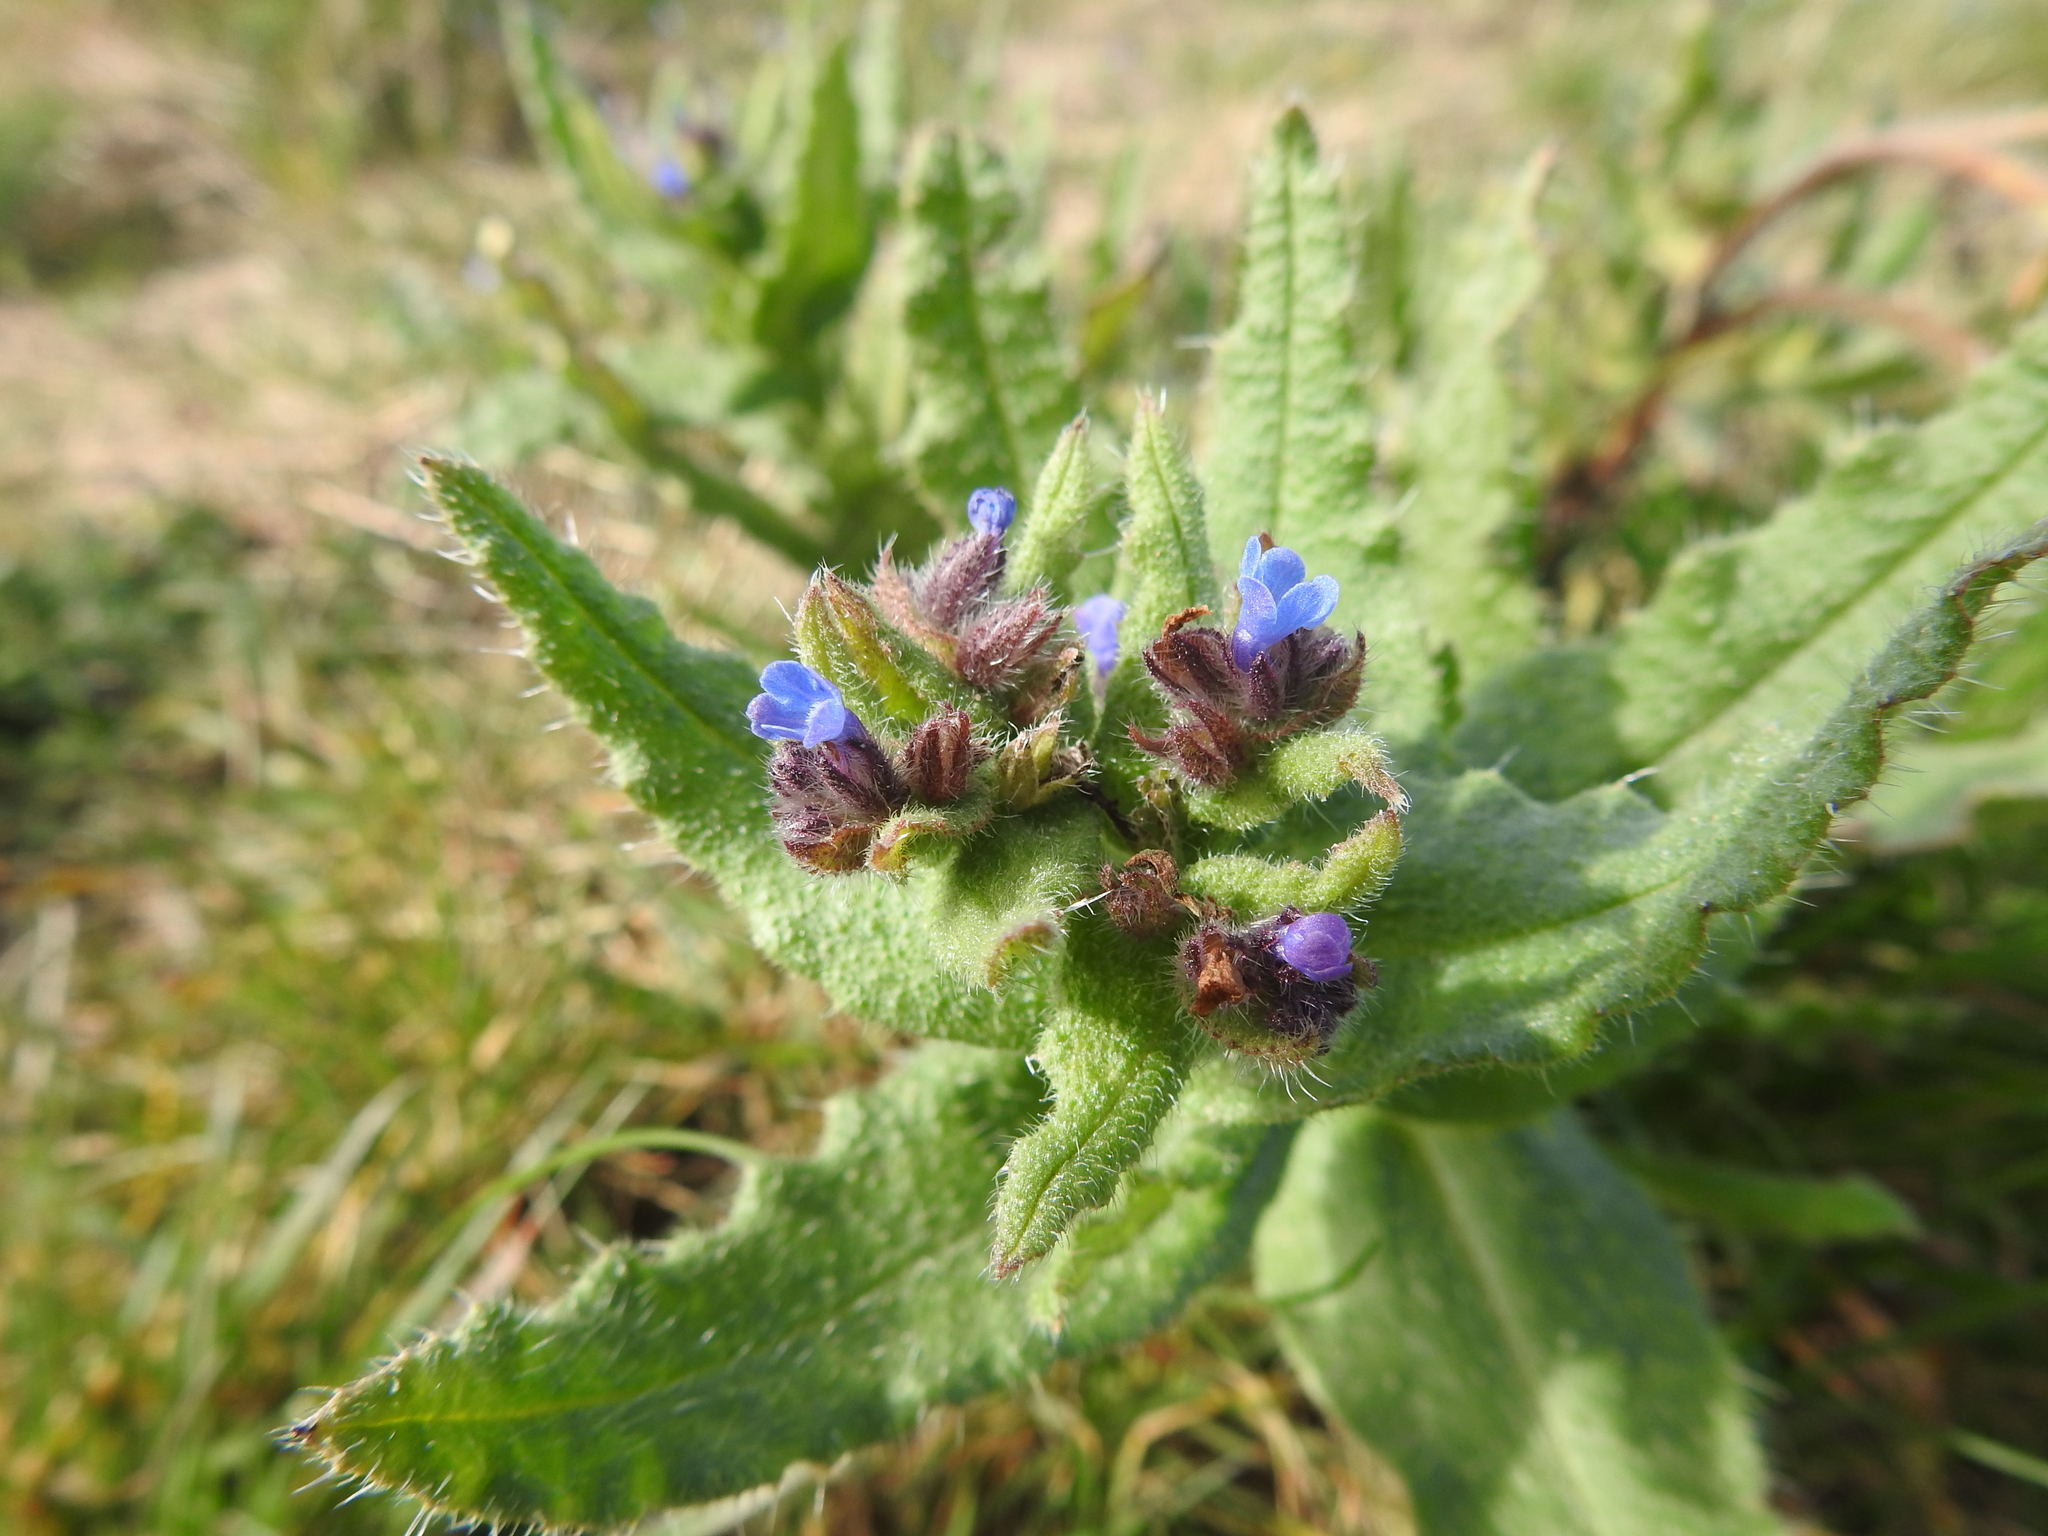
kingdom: Plantae
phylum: Tracheophyta
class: Magnoliopsida
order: Boraginales
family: Boraginaceae
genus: Lycopsis
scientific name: Lycopsis arvensis
